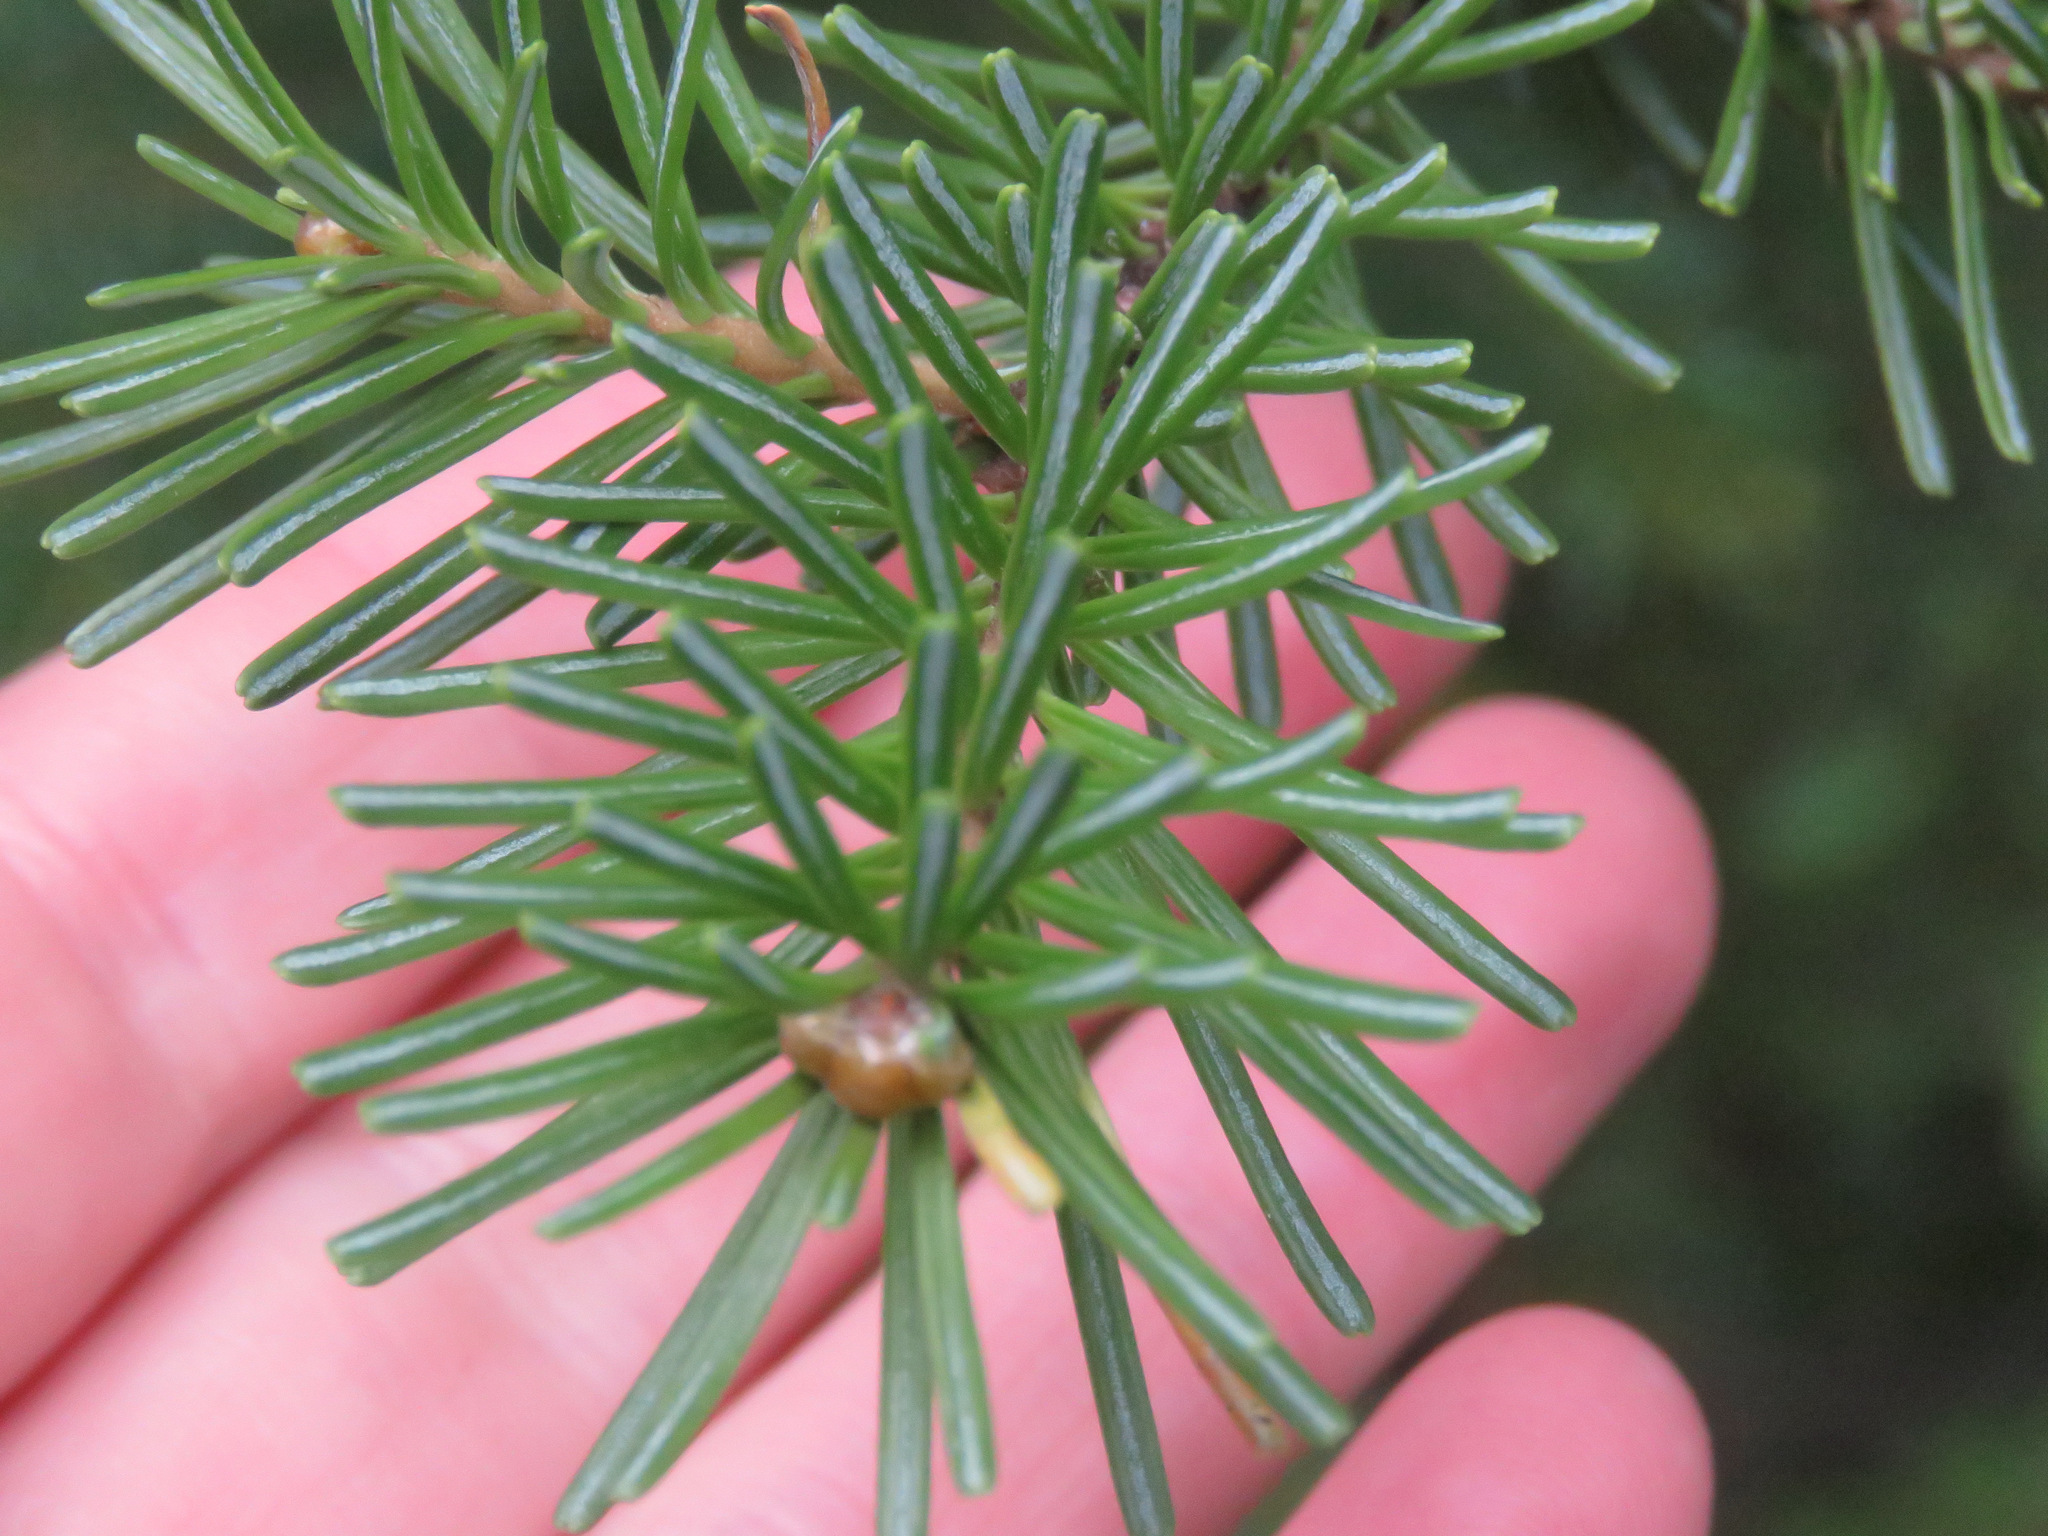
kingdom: Plantae
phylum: Tracheophyta
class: Pinopsida
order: Pinales
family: Pinaceae
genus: Abies
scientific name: Abies lasiocarpa
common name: Subalpine fir
